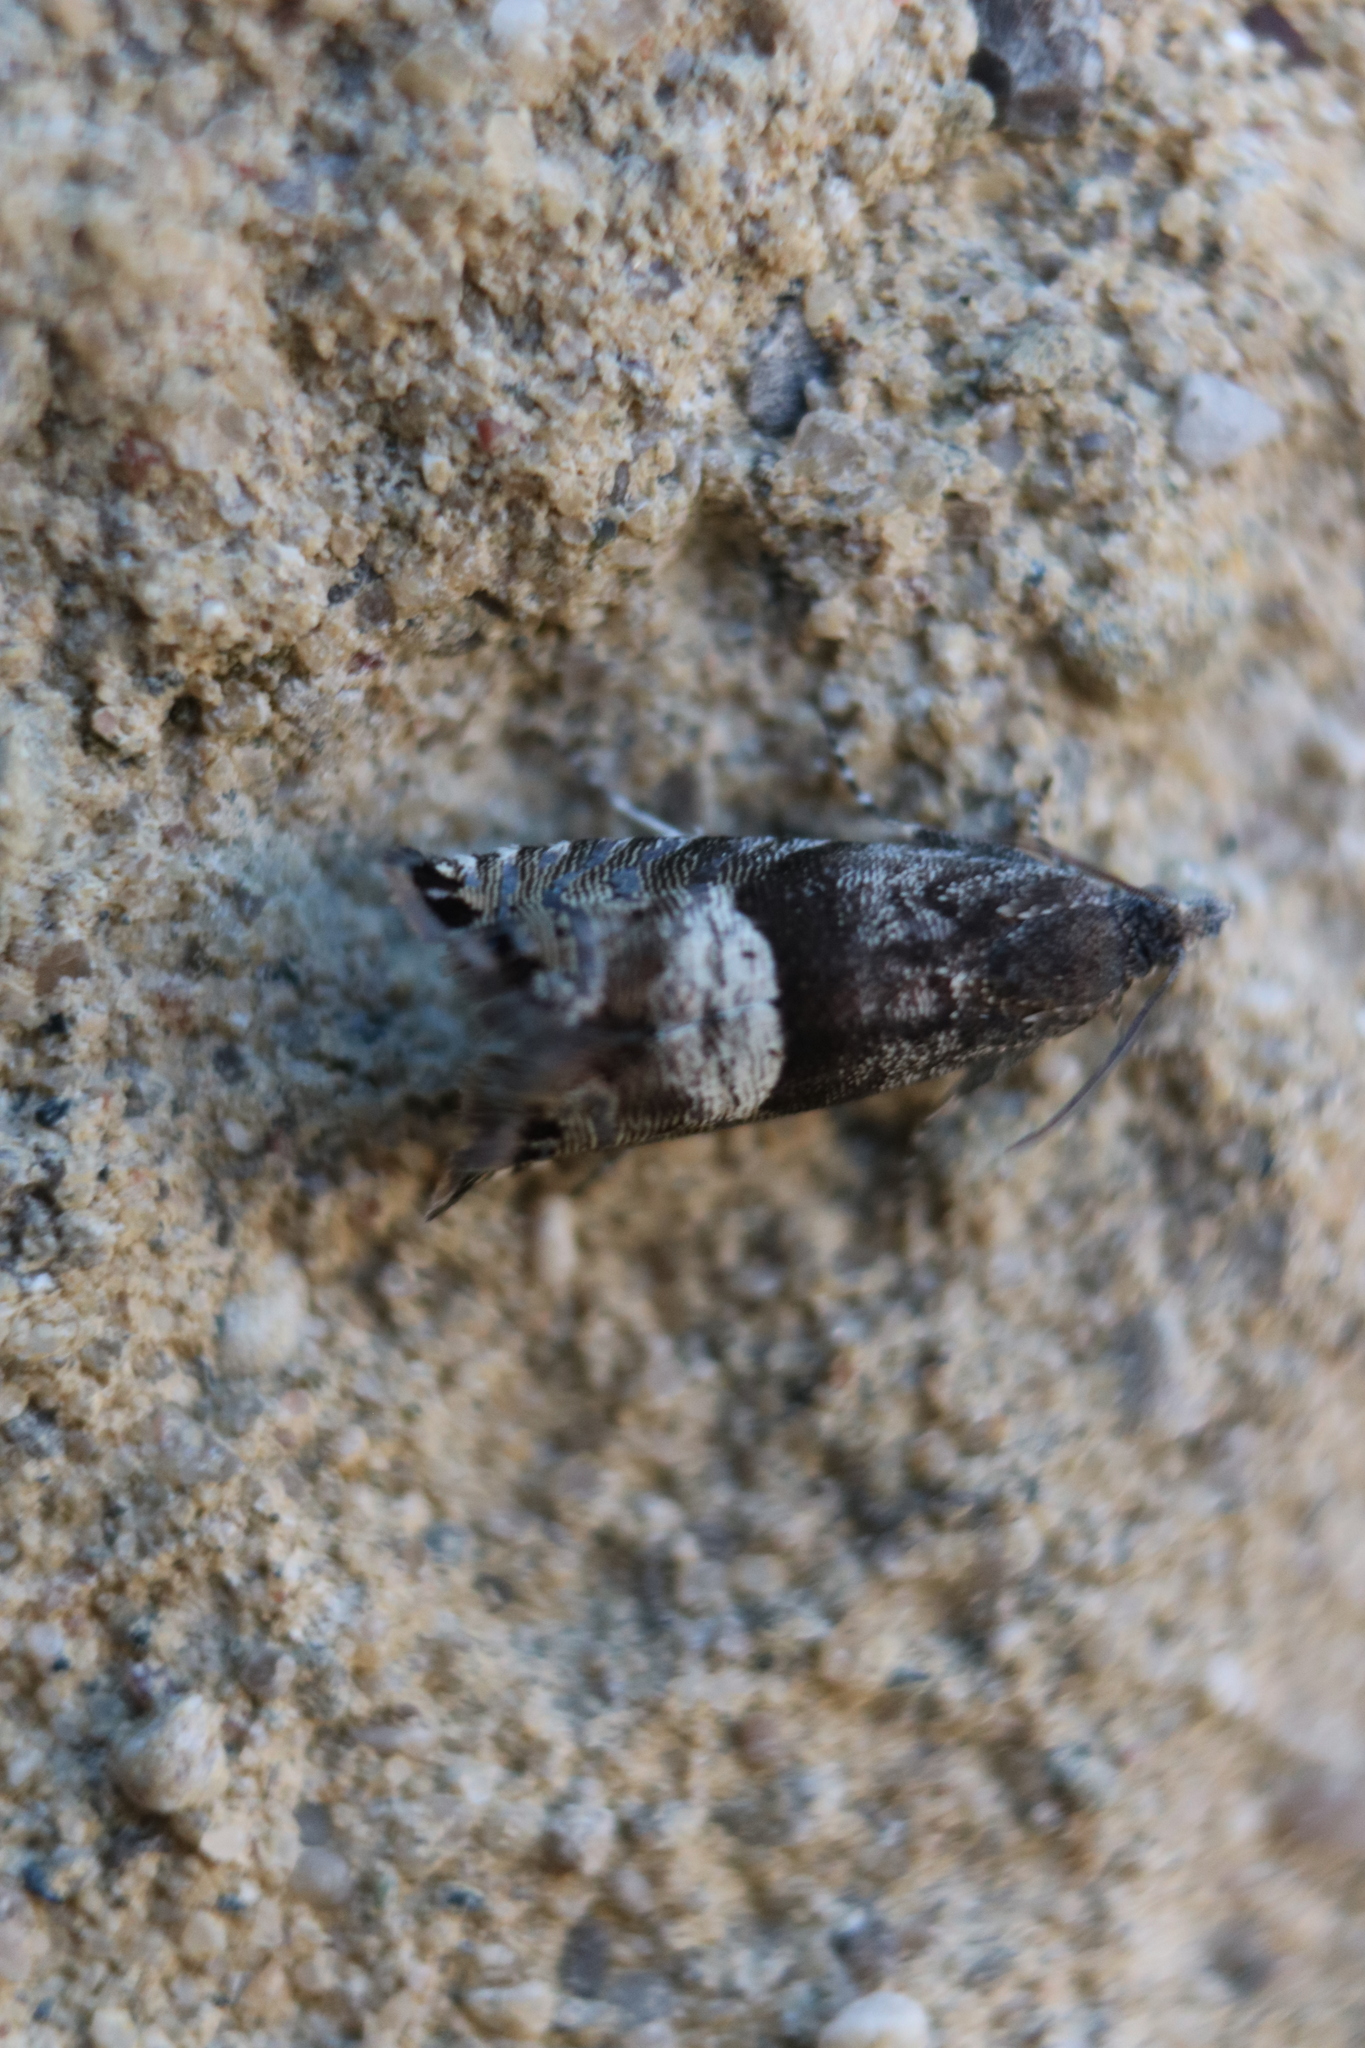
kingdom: Animalia
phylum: Arthropoda
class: Insecta
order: Lepidoptera
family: Tortricidae
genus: Sereda
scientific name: Sereda tautana
